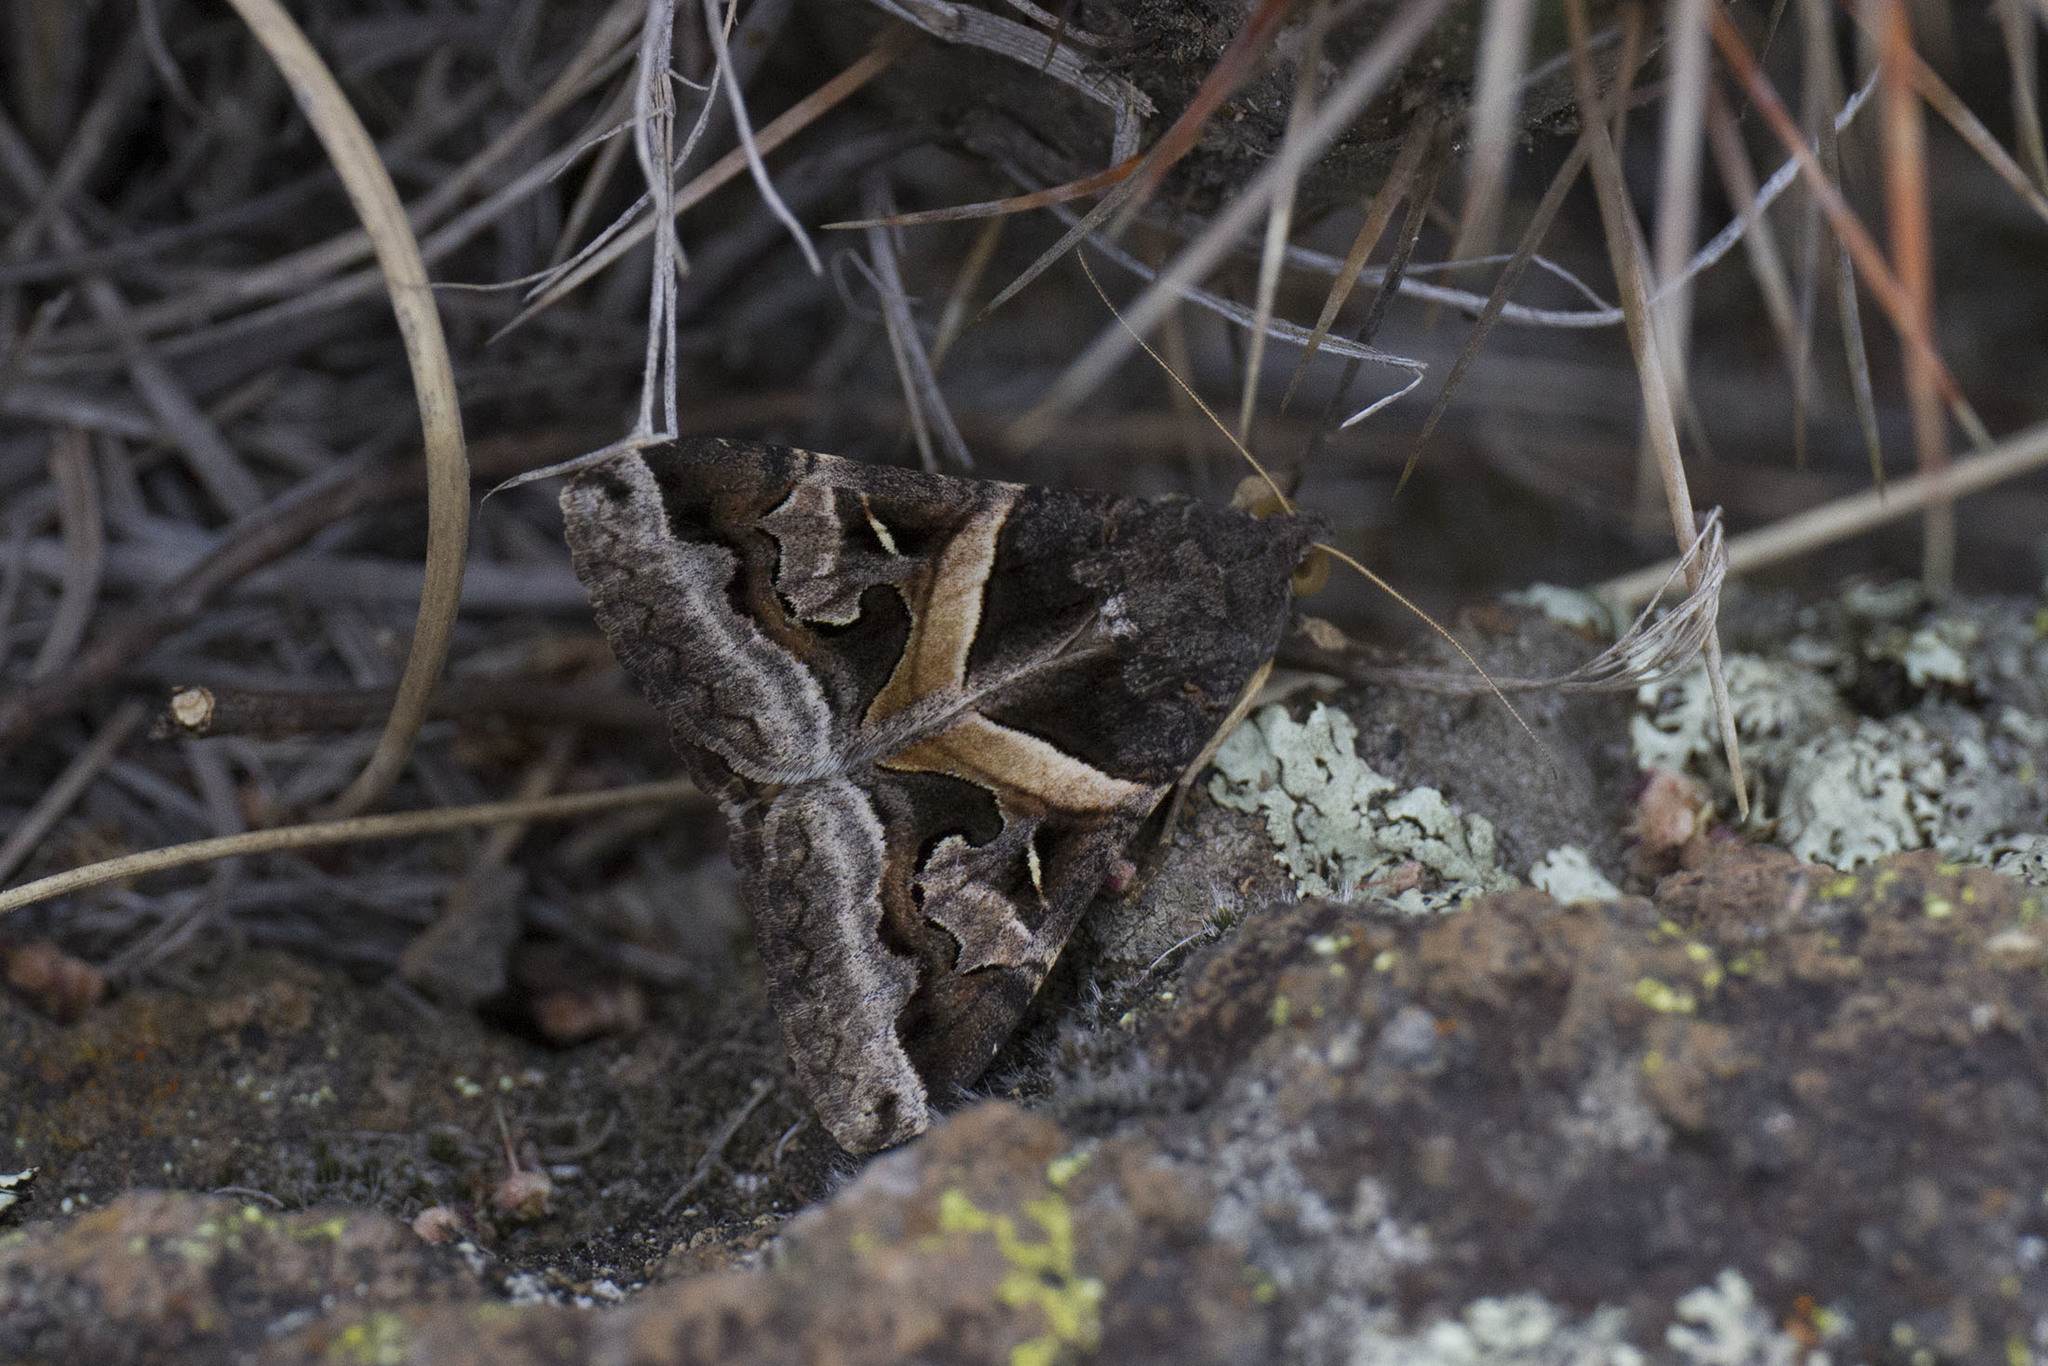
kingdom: Animalia
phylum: Arthropoda
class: Insecta
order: Lepidoptera
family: Erebidae
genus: Melipotis
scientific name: Melipotis indomita
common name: Moth
